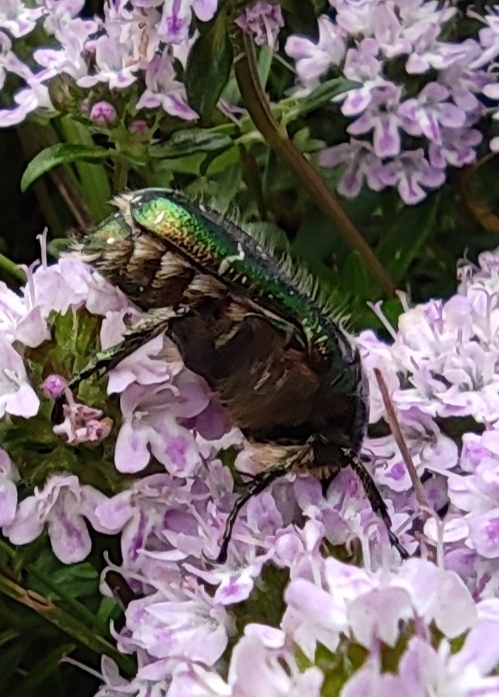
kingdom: Animalia
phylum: Arthropoda
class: Insecta
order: Coleoptera
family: Scarabaeidae
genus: Cetonia
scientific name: Cetonia aurata
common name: Rose chafer
